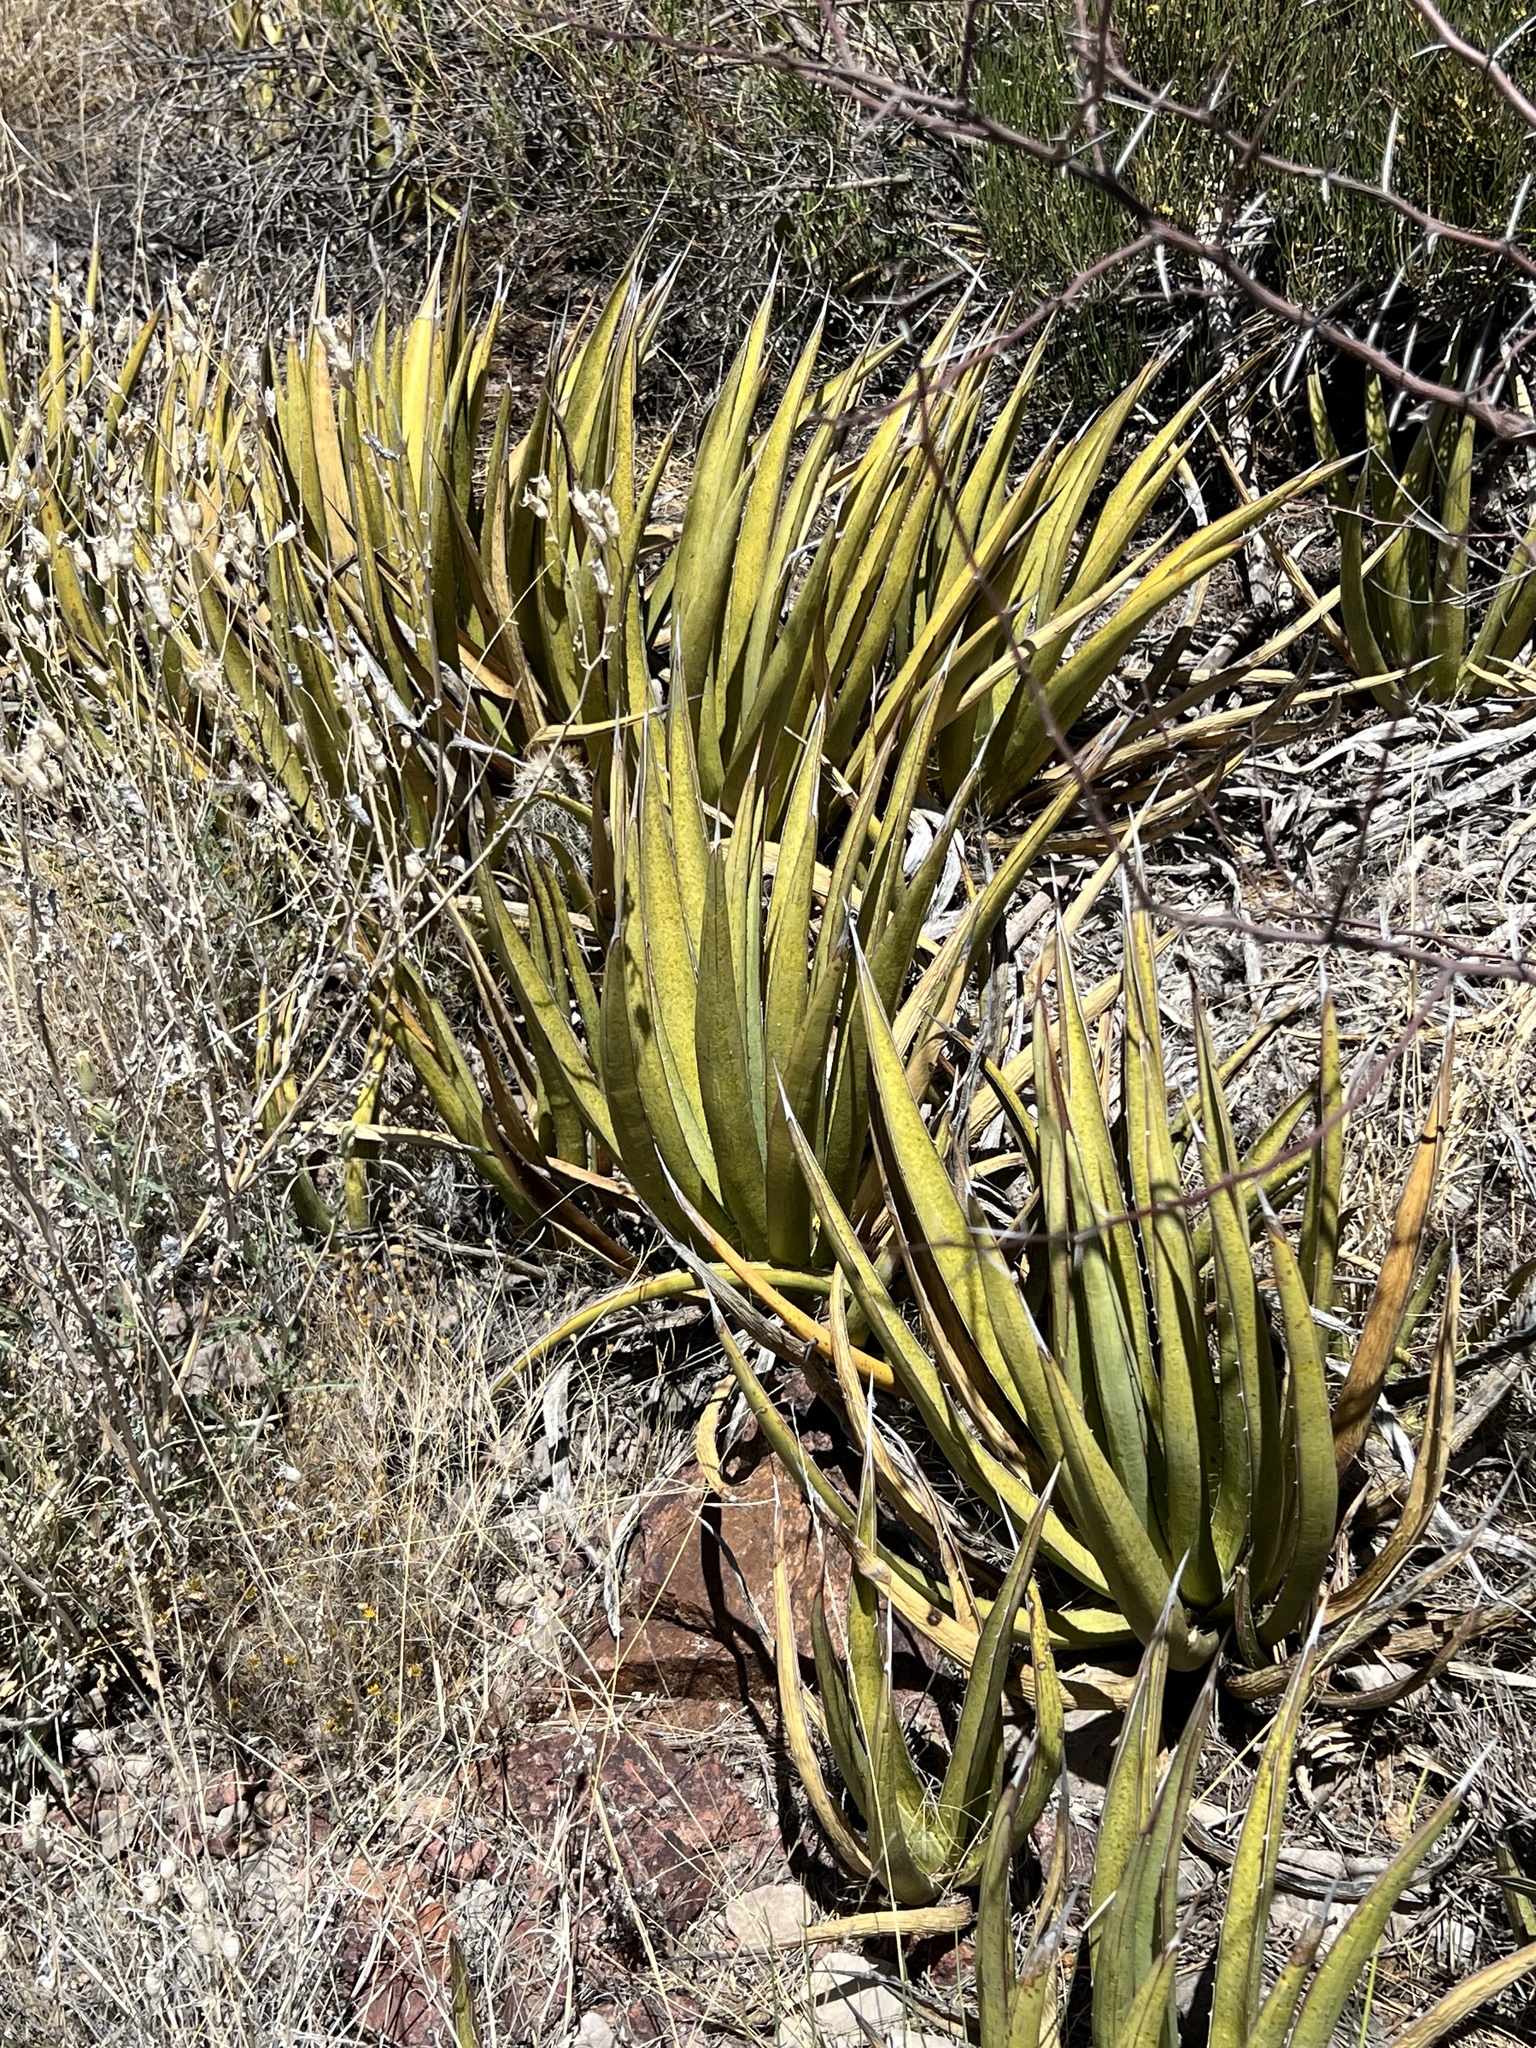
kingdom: Plantae
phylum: Tracheophyta
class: Liliopsida
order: Asparagales
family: Asparagaceae
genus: Agave
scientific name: Agave lechuguilla
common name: Lecheguilla agave
